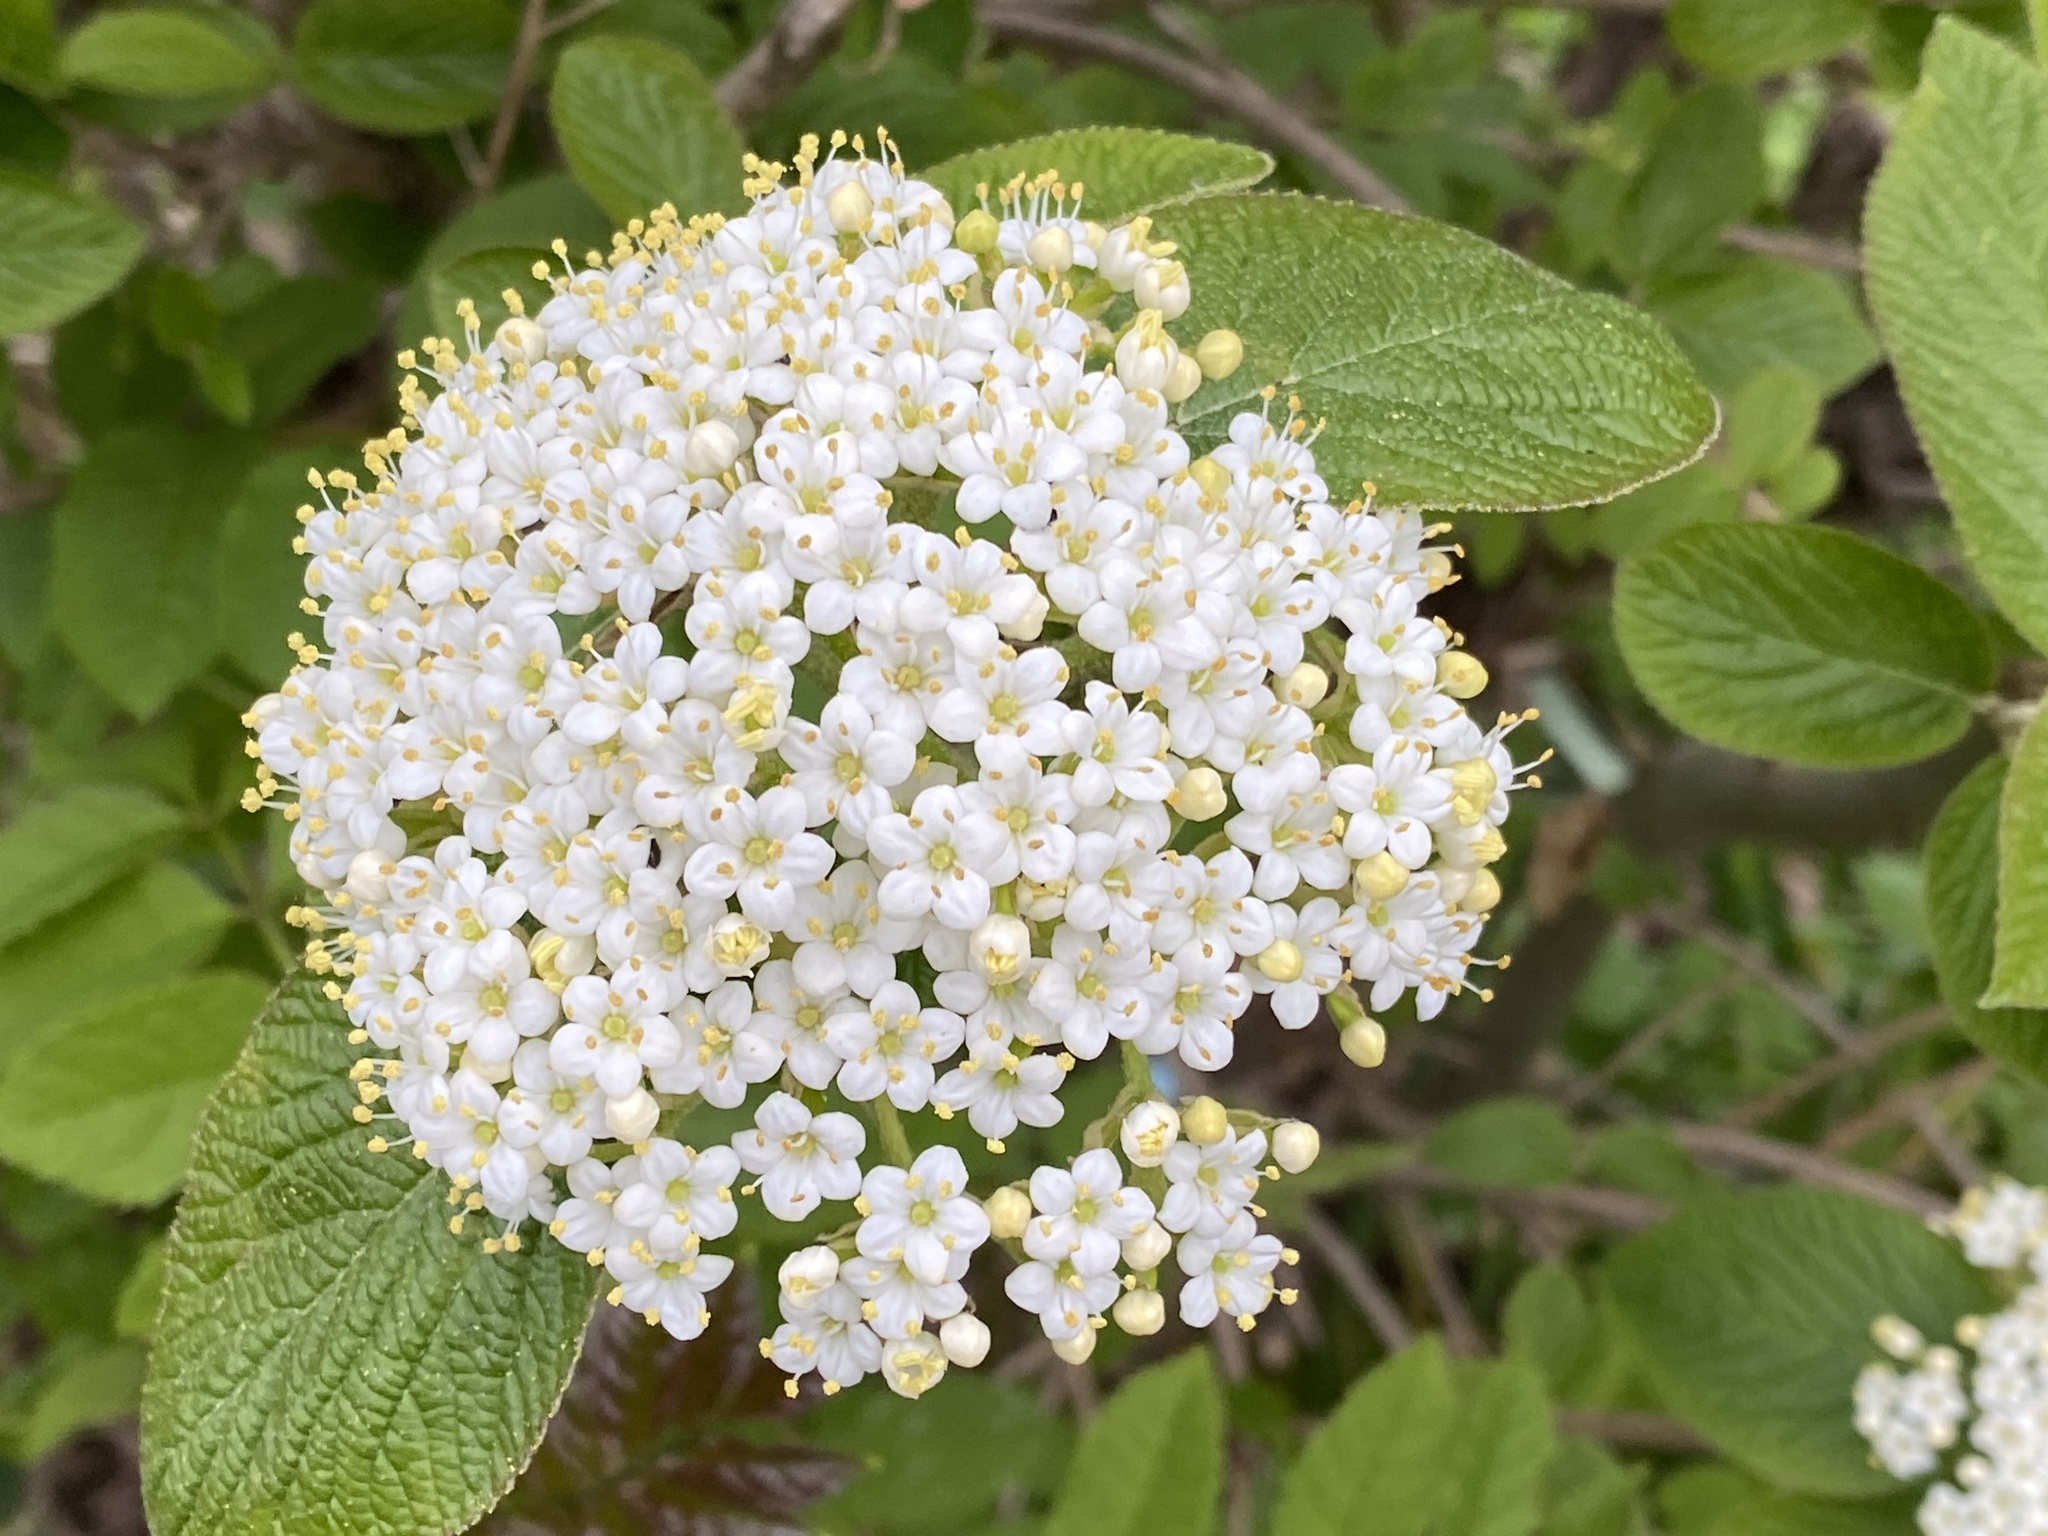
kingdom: Plantae
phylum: Tracheophyta
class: Magnoliopsida
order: Dipsacales
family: Viburnaceae
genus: Viburnum
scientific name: Viburnum lantana
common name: Wayfaring tree
